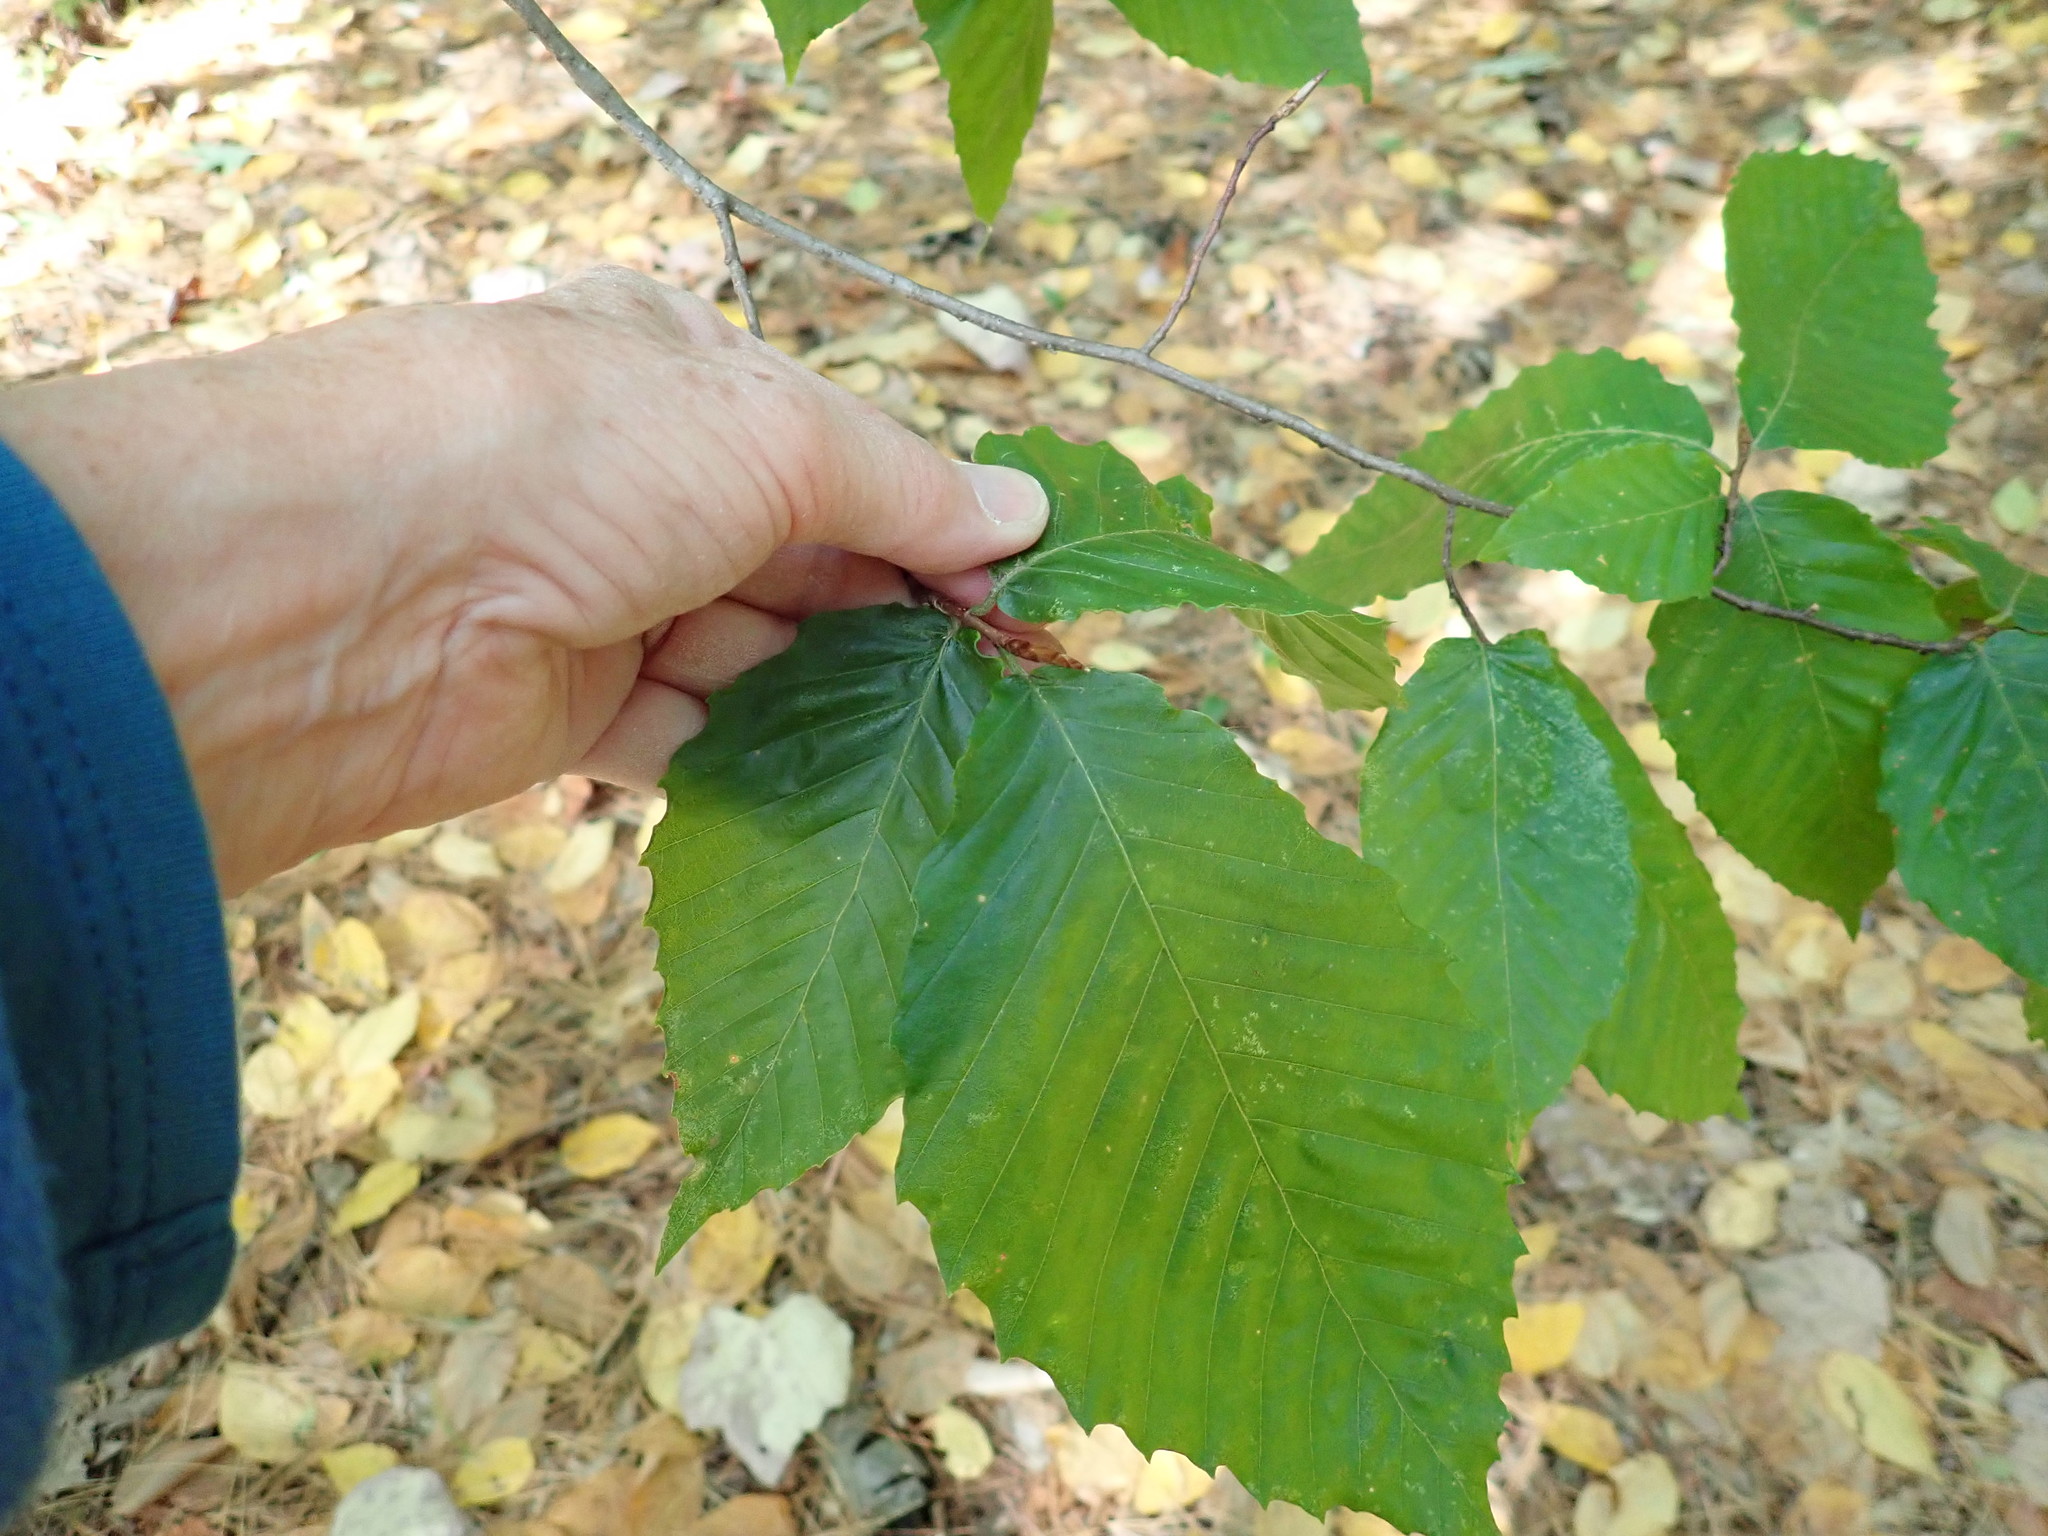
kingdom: Plantae
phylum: Tracheophyta
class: Magnoliopsida
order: Fagales
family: Fagaceae
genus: Fagus
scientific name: Fagus grandifolia
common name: American beech
